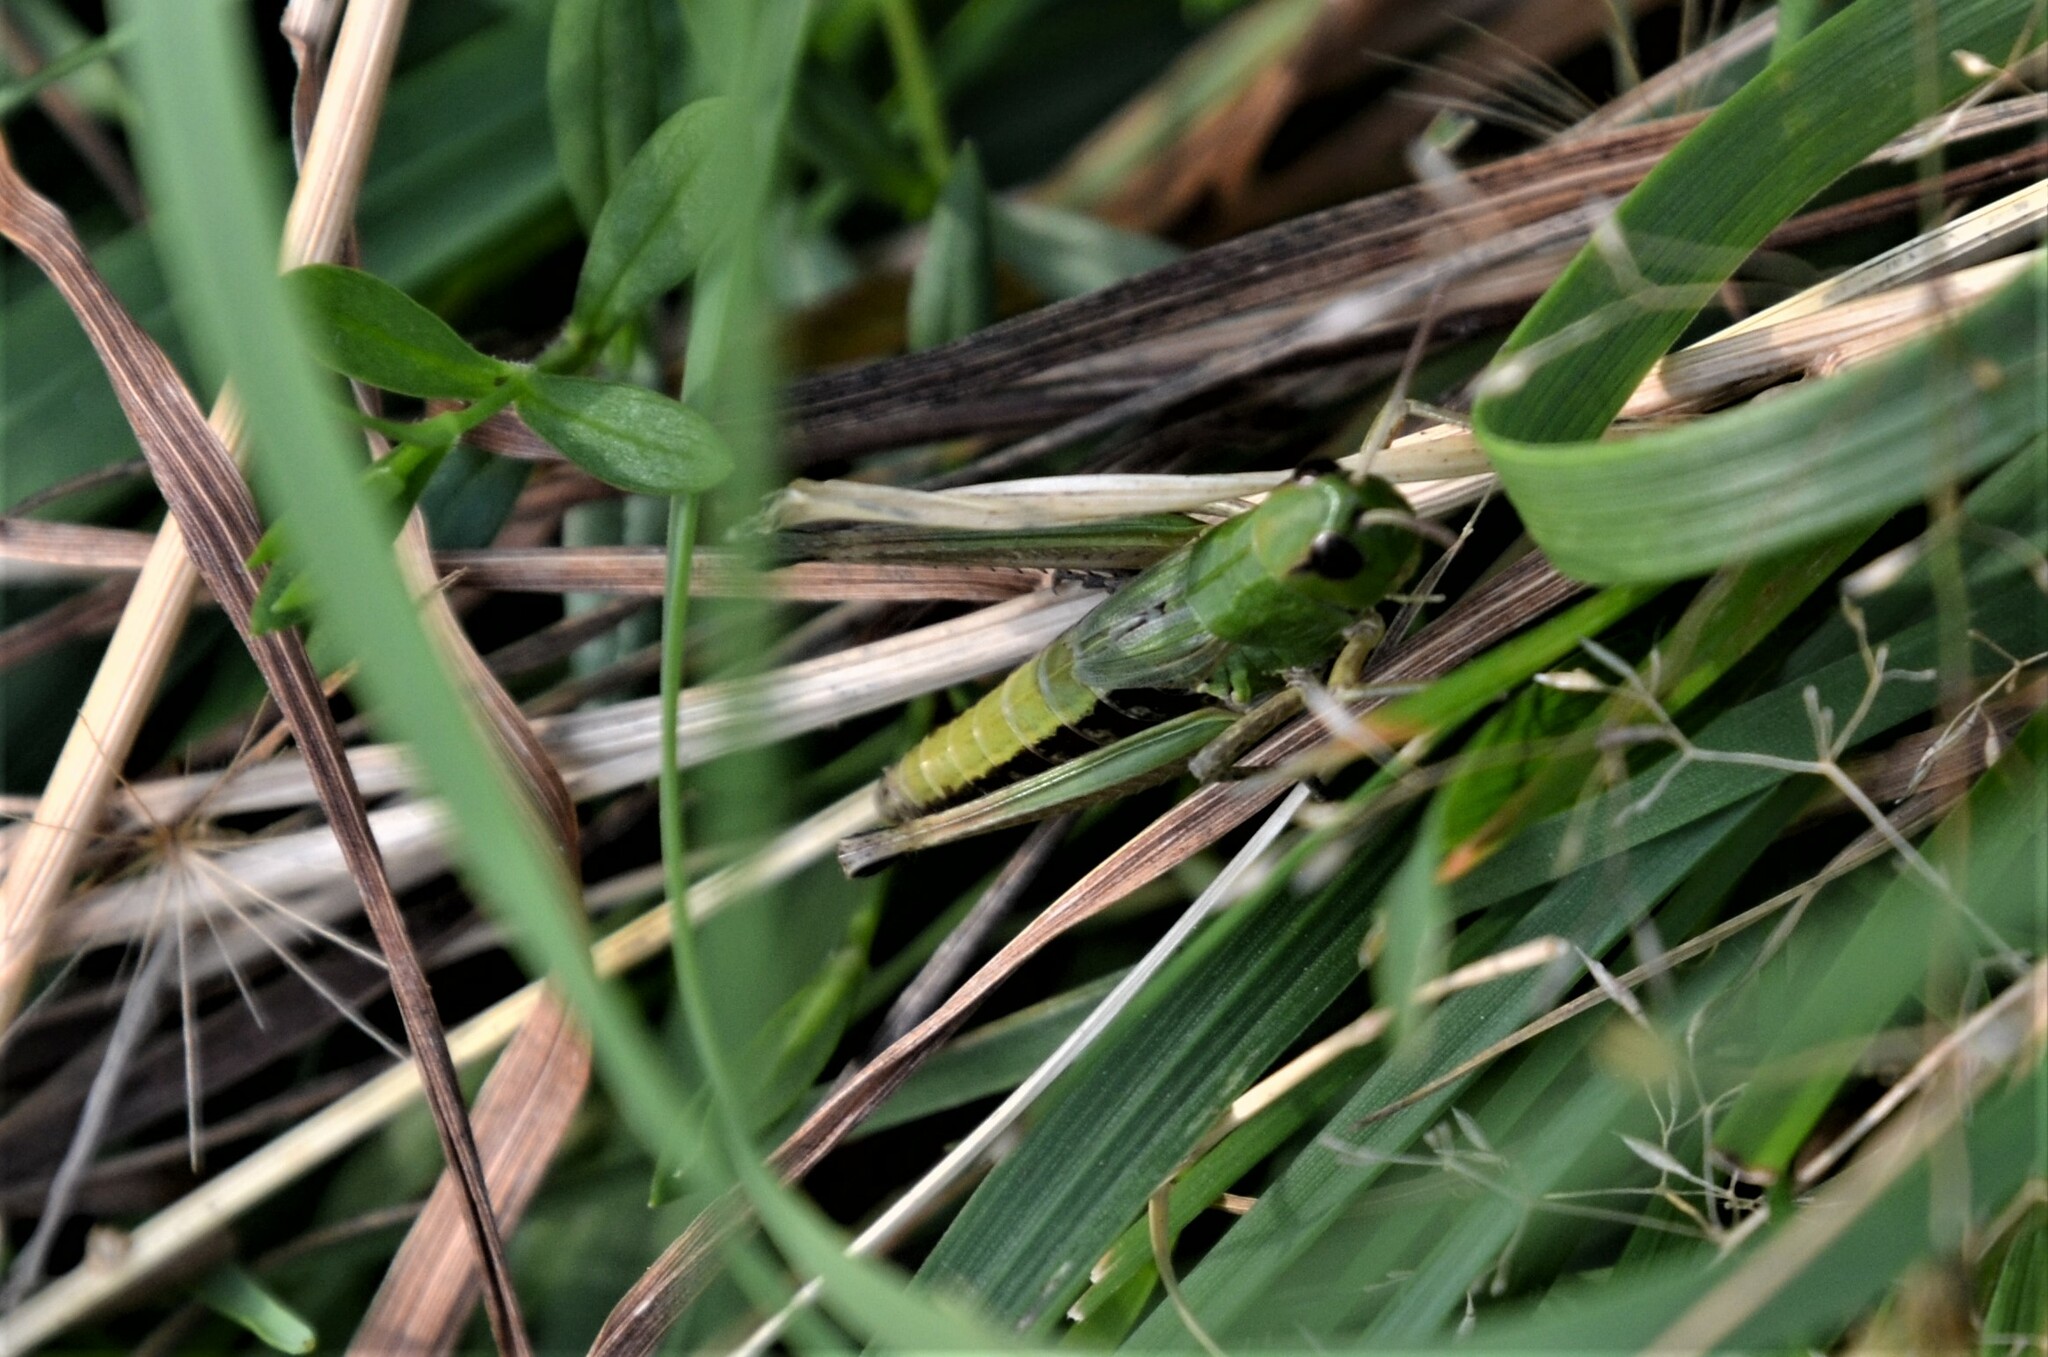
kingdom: Animalia
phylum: Arthropoda
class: Insecta
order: Orthoptera
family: Acrididae
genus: Pseudochorthippus
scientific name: Pseudochorthippus parallelus
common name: Meadow grasshopper
